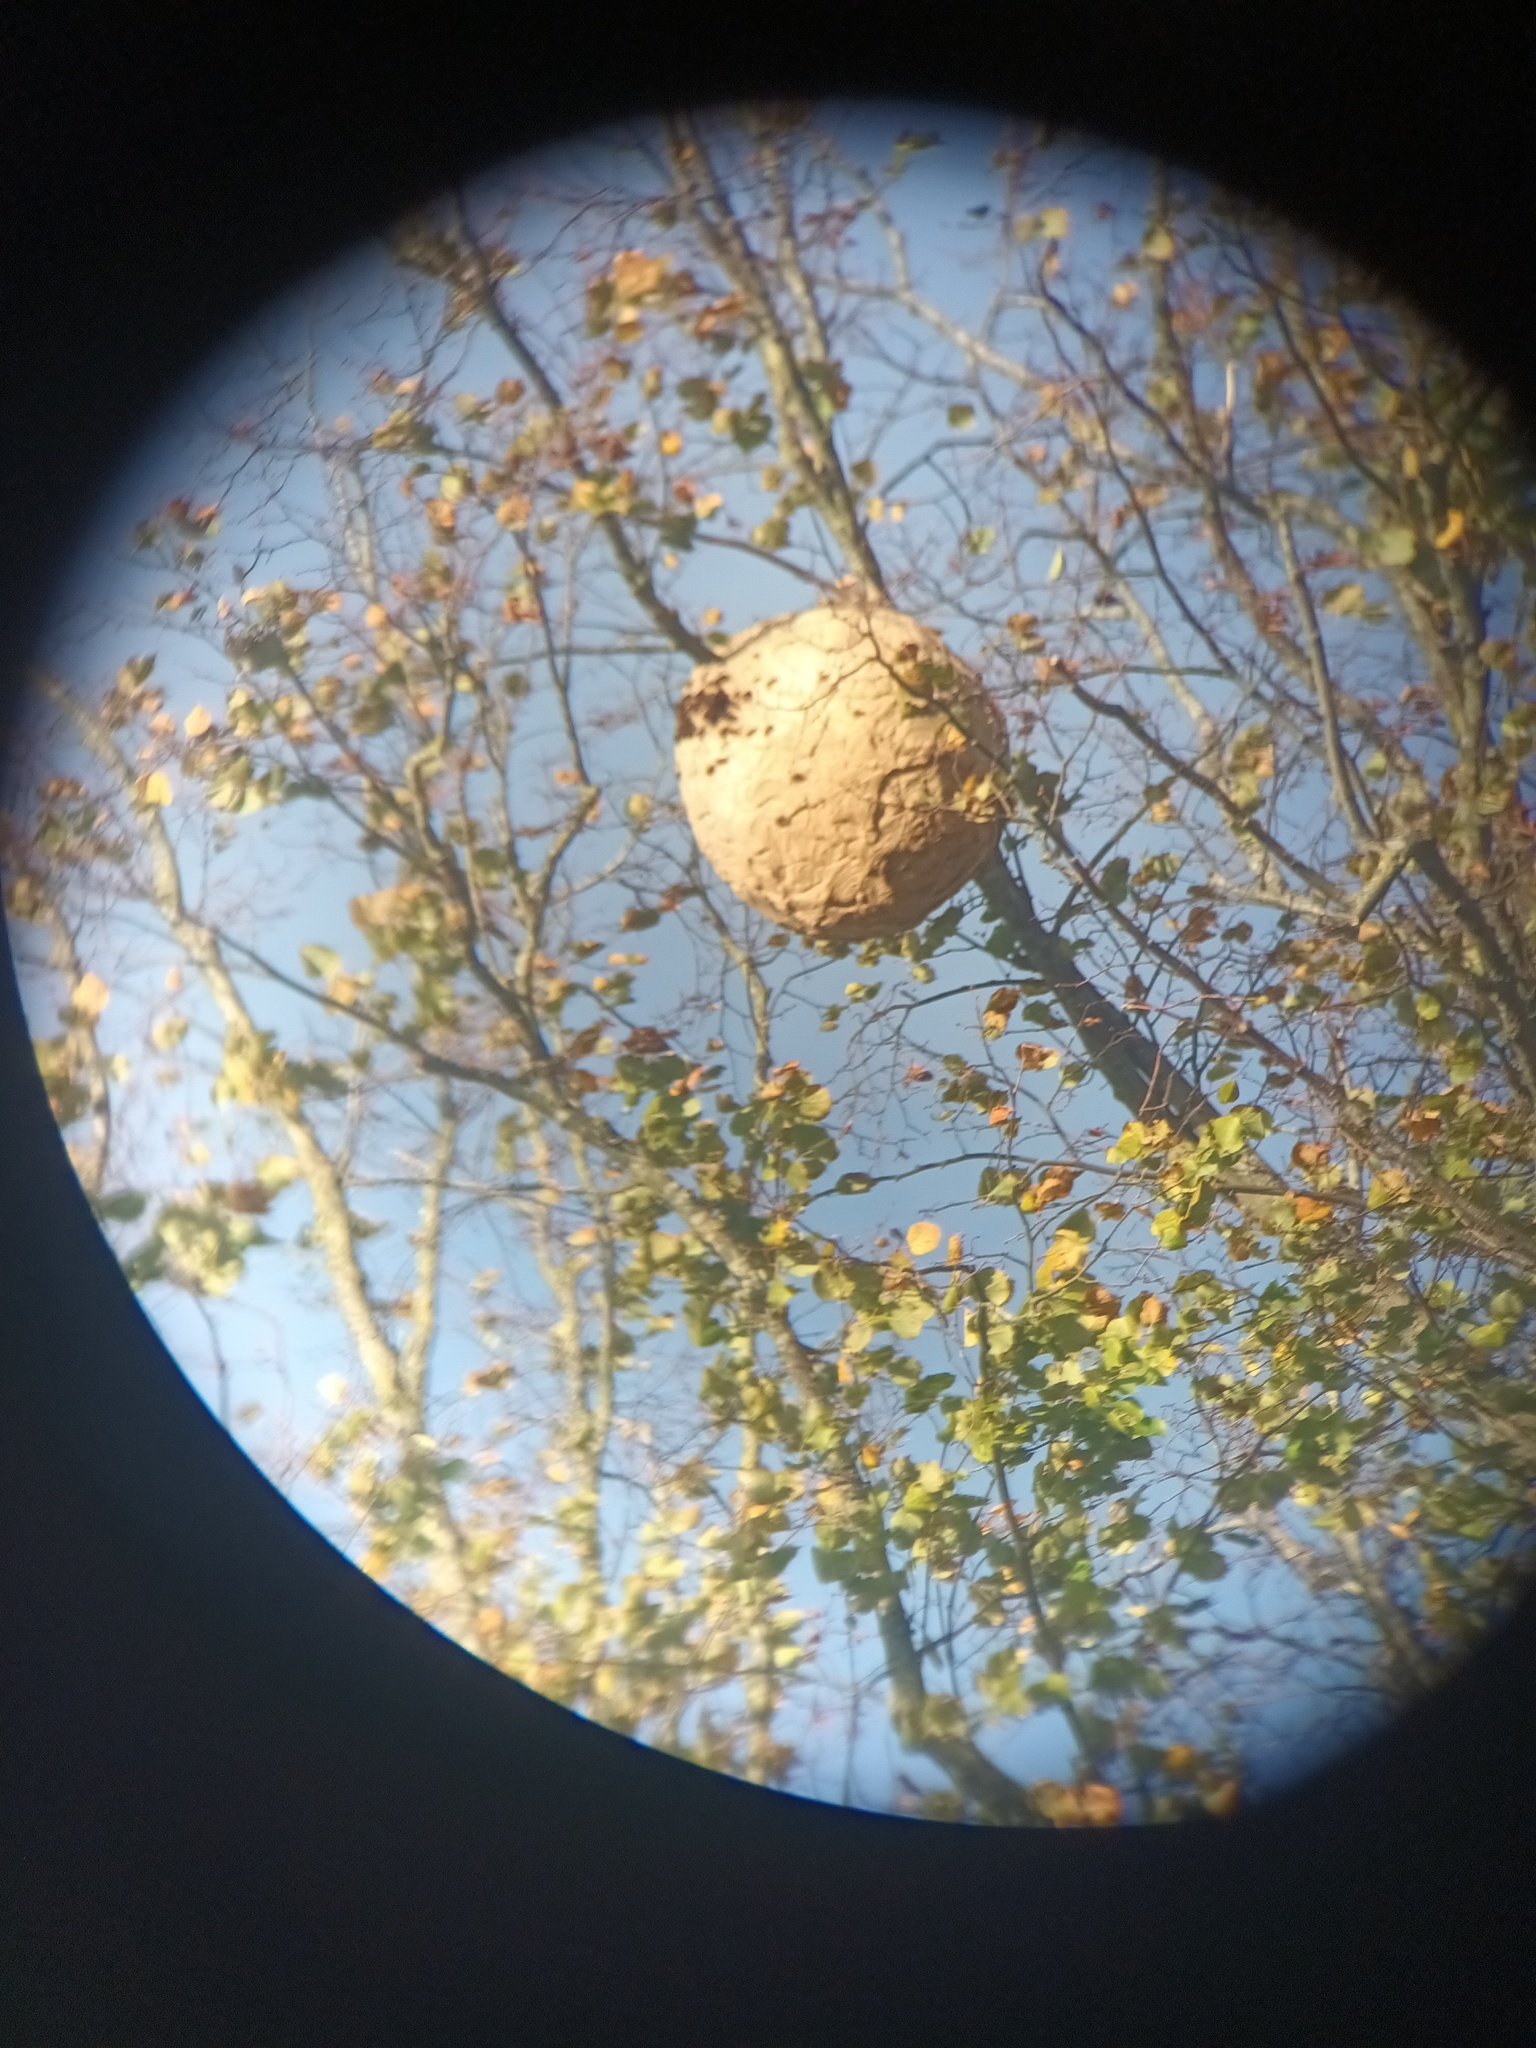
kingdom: Animalia
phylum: Arthropoda
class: Insecta
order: Hymenoptera
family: Vespidae
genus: Vespa
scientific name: Vespa velutina
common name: Asian hornet
